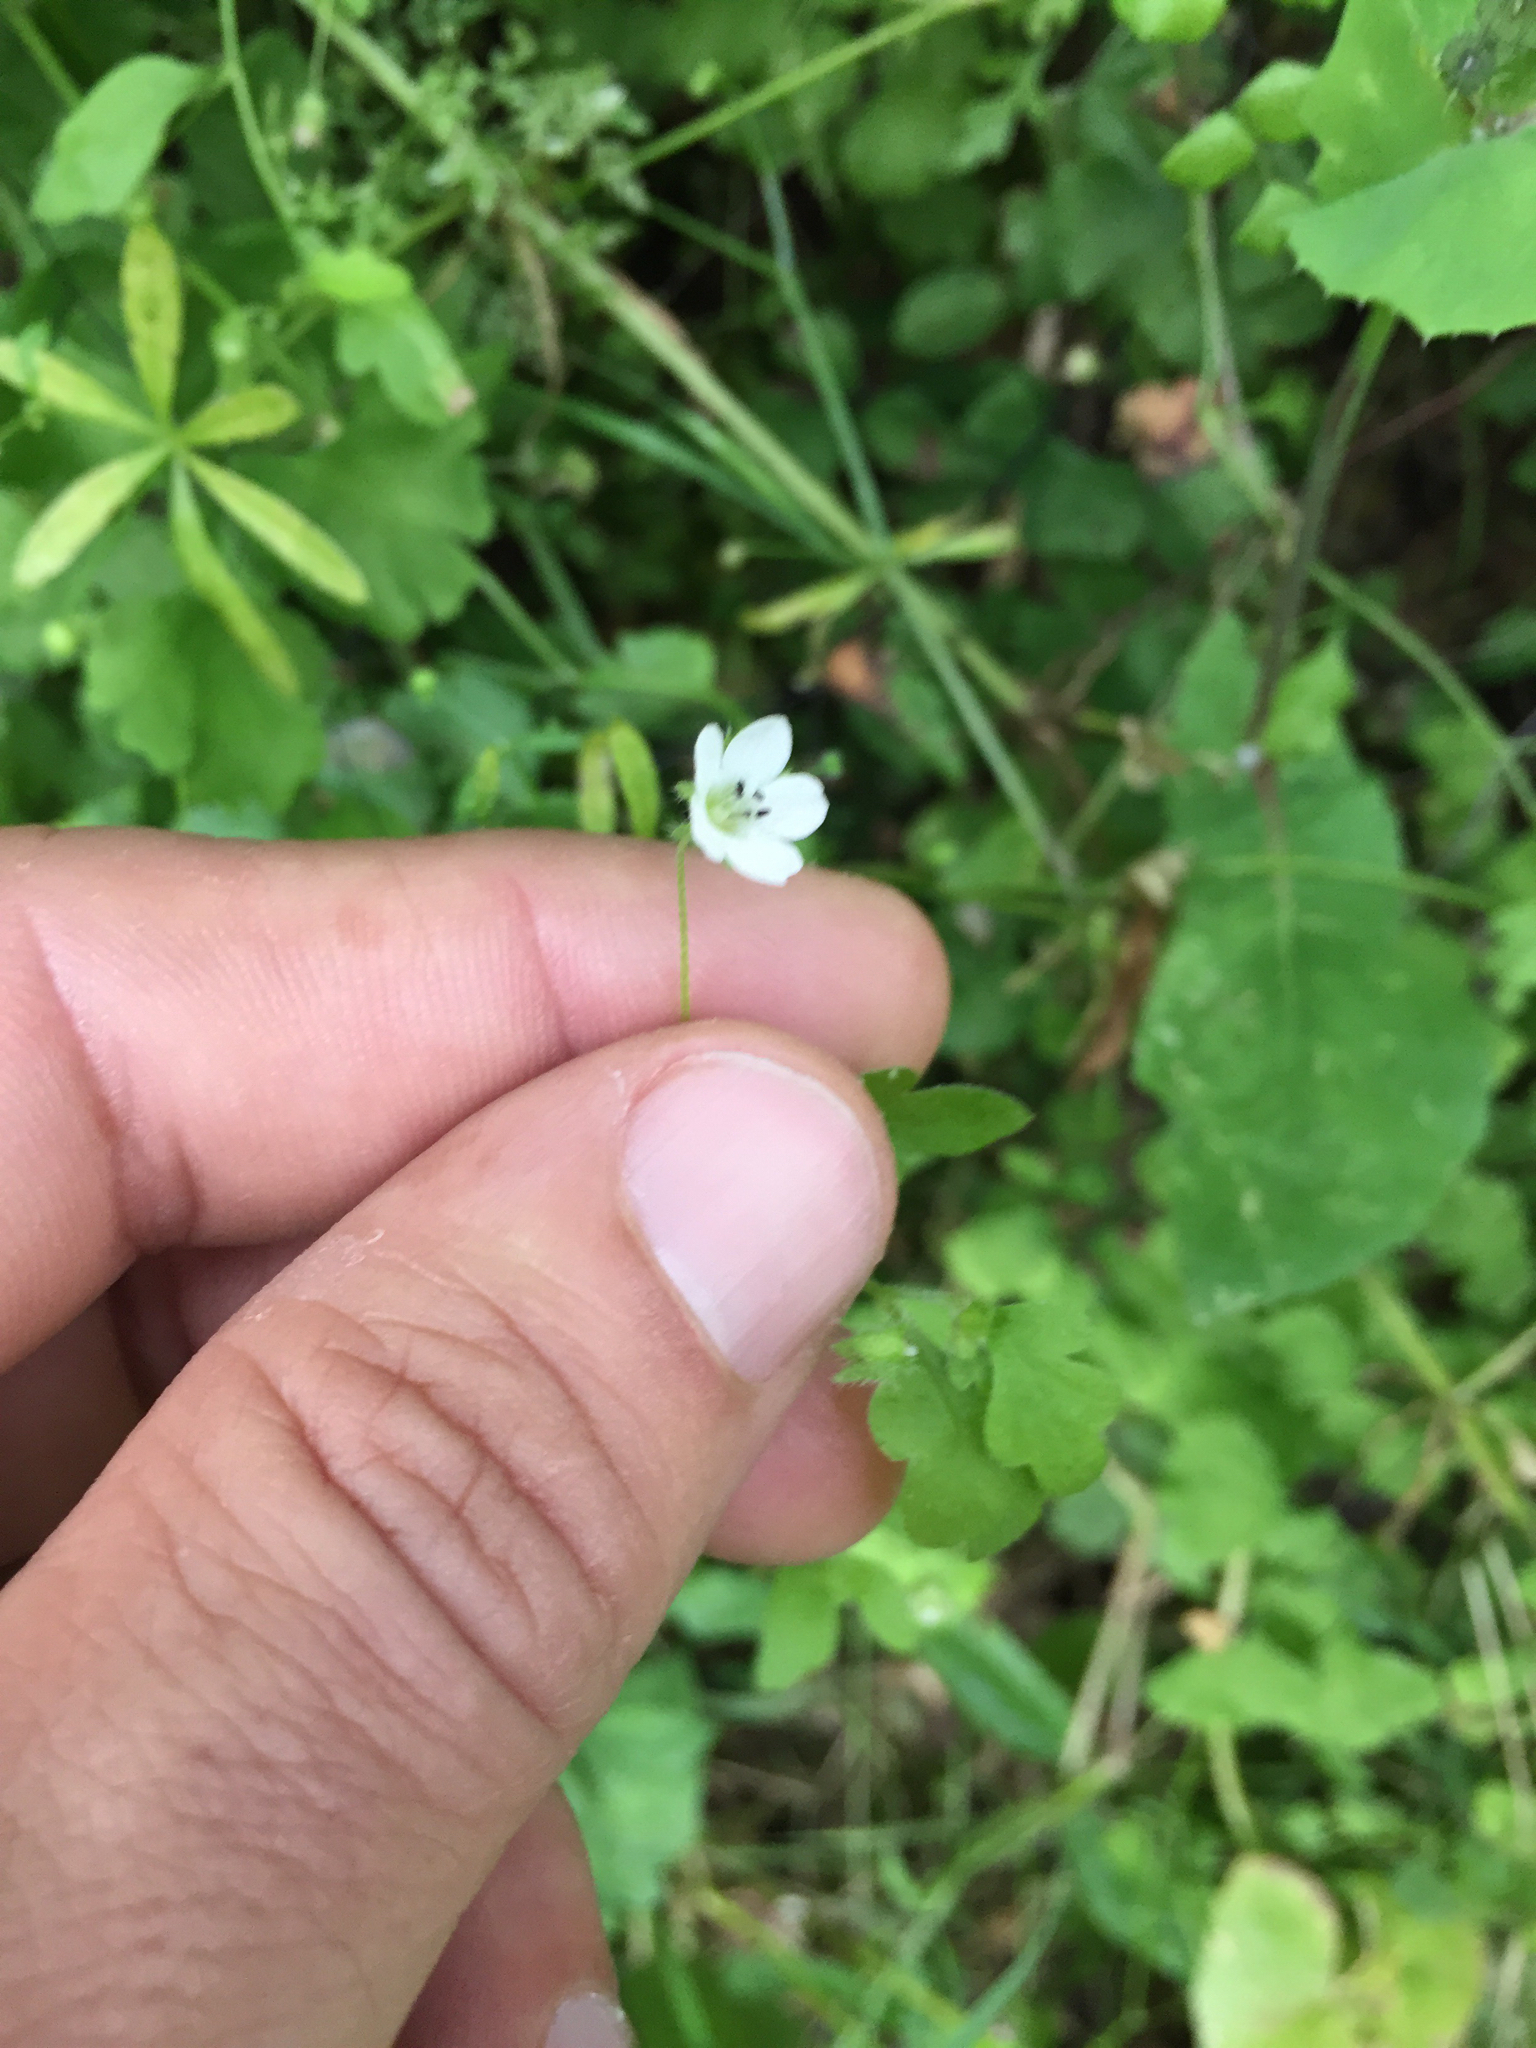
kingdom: Plantae
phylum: Tracheophyta
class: Magnoliopsida
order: Boraginales
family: Hydrophyllaceae
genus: Nemophila
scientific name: Nemophila heterophylla
